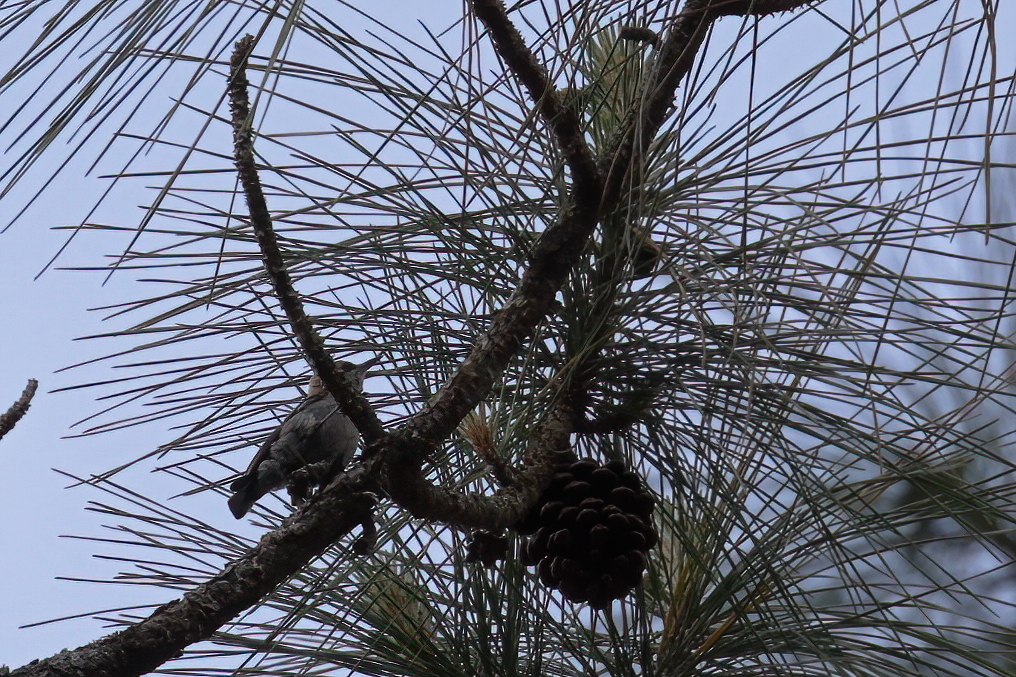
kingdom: Animalia
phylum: Chordata
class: Aves
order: Passeriformes
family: Sittidae
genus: Sitta
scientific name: Sitta pusilla
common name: Brown-headed nuthatch
